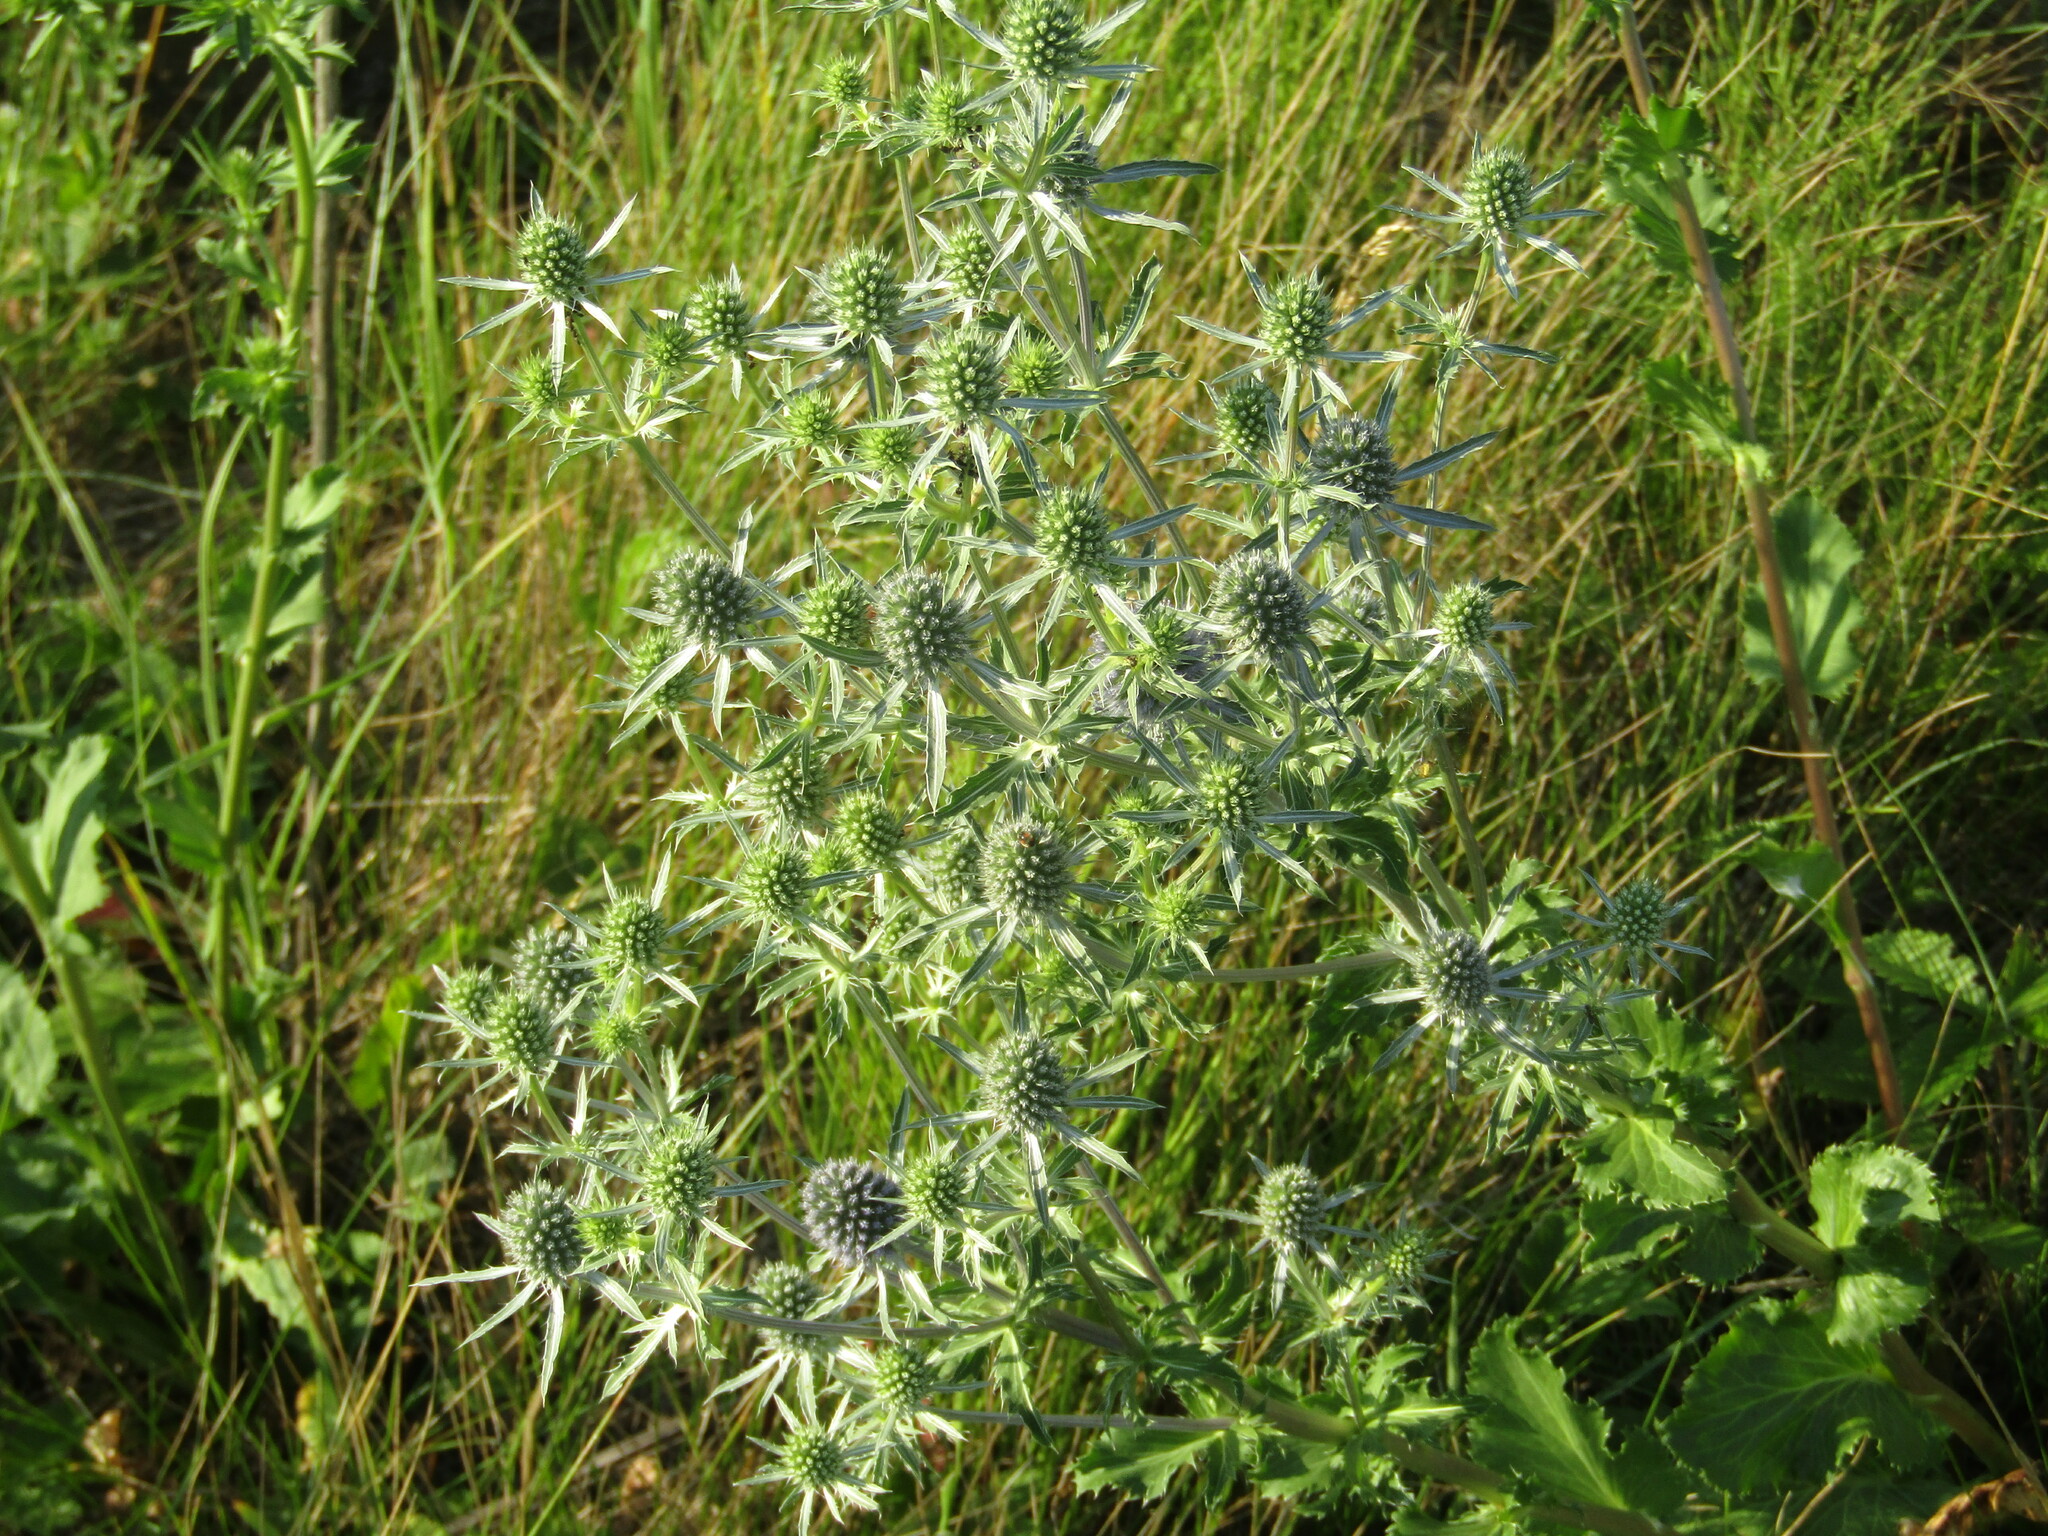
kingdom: Plantae
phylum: Tracheophyta
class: Magnoliopsida
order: Apiales
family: Apiaceae
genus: Eryngium
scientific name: Eryngium planum
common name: Blue eryngo
